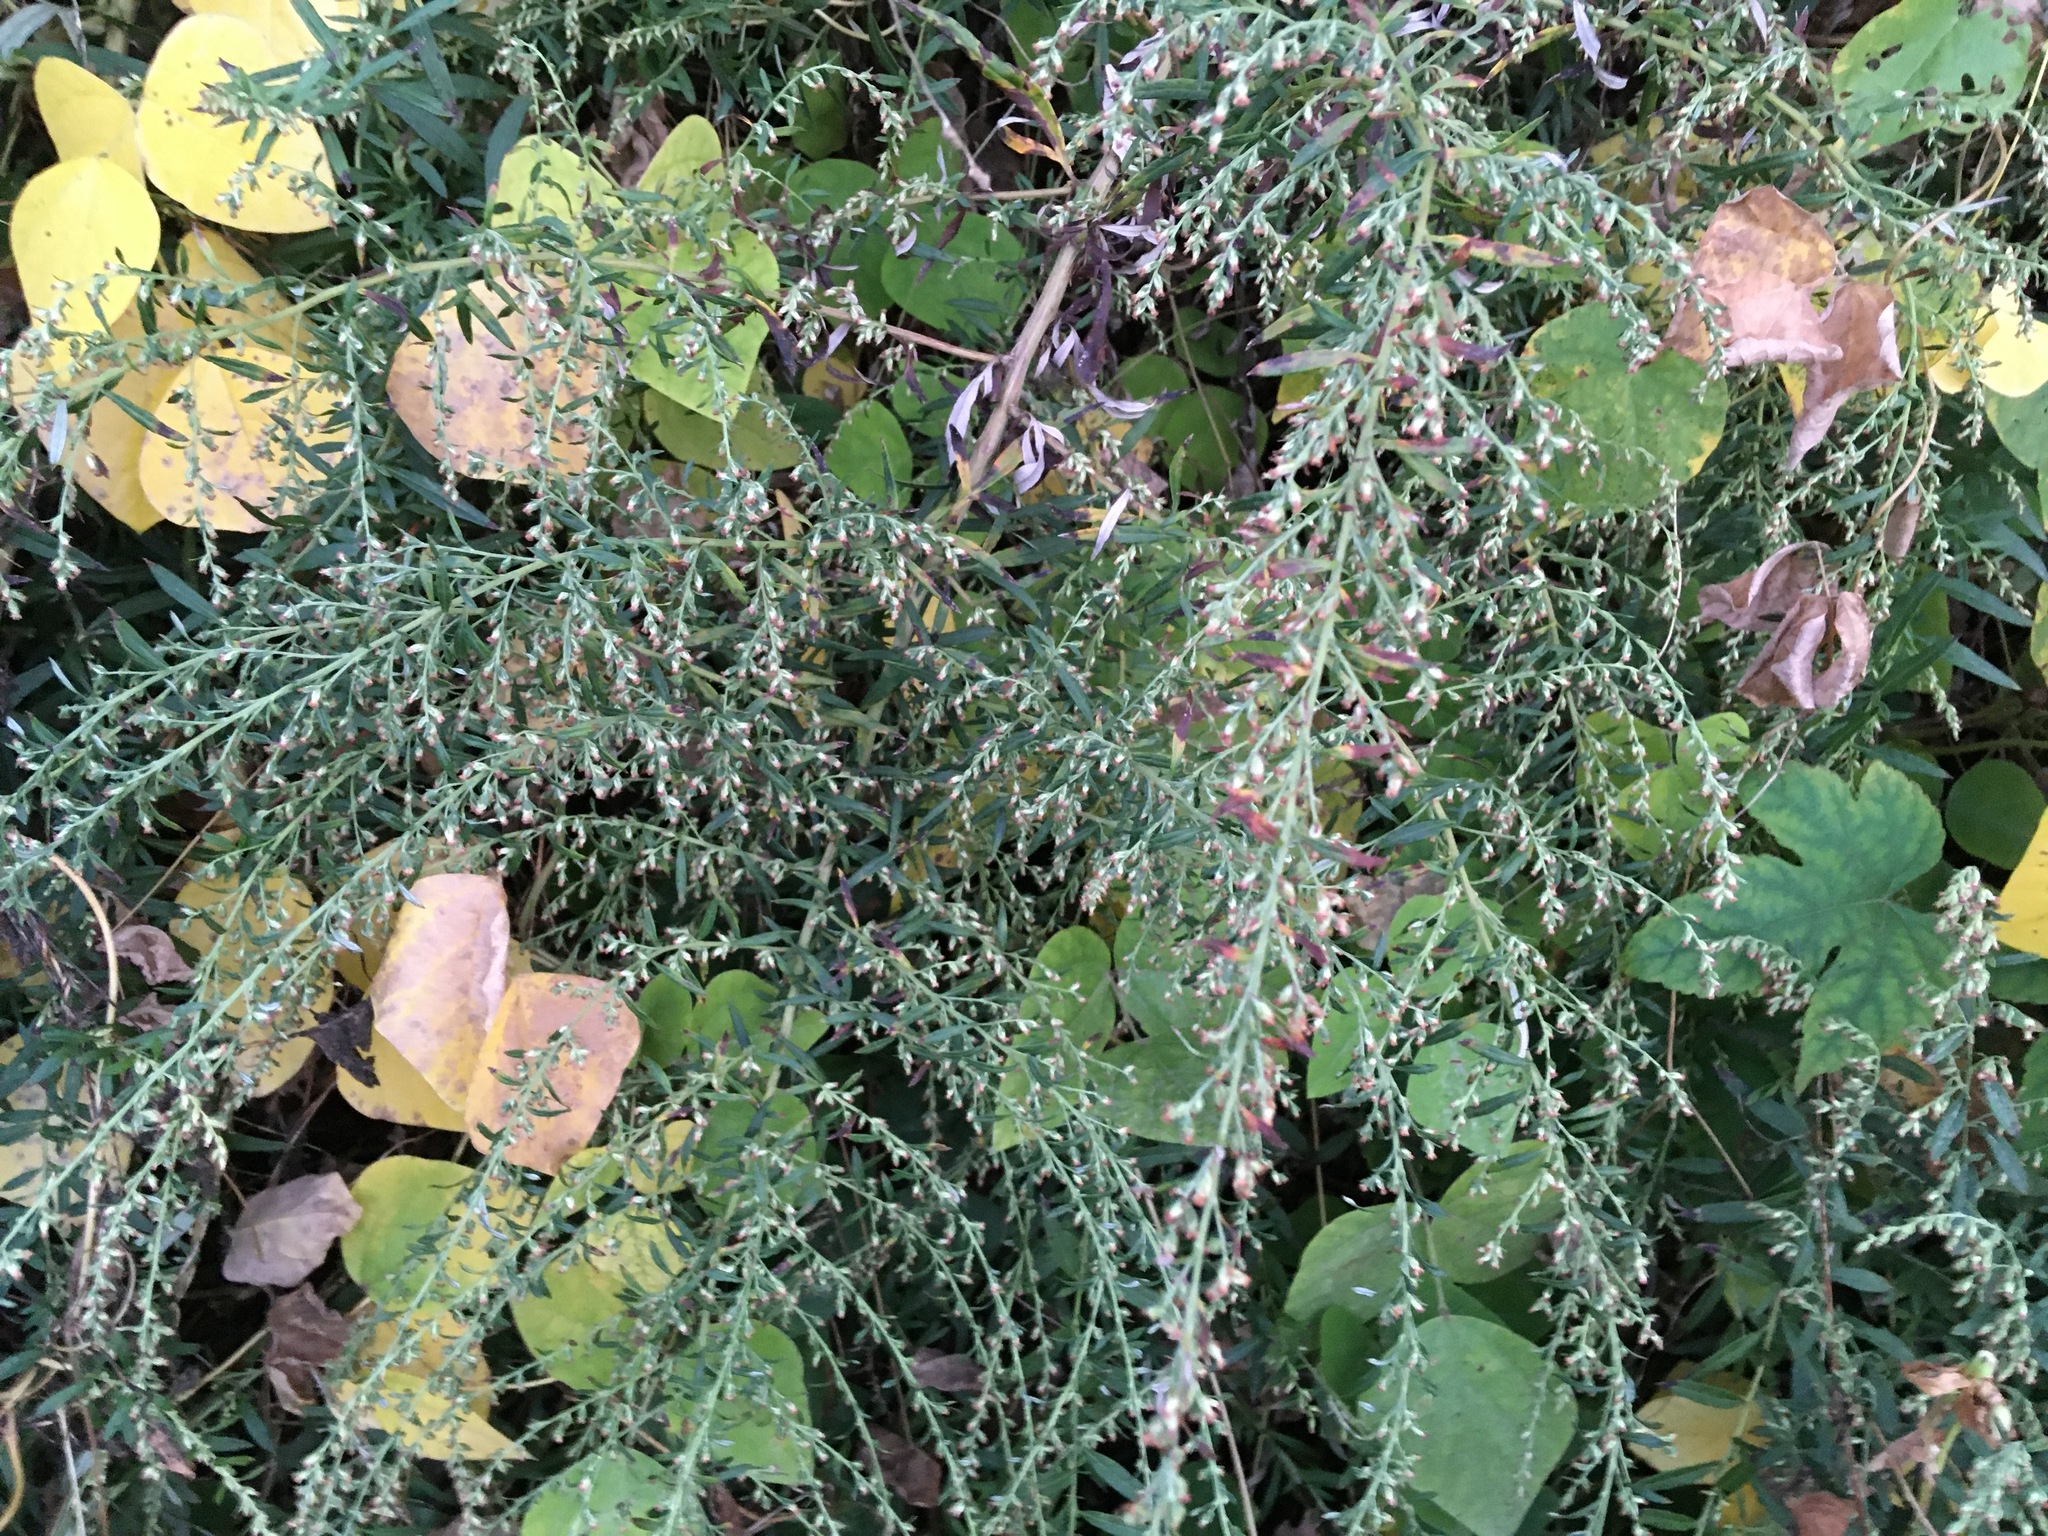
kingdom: Plantae
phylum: Tracheophyta
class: Magnoliopsida
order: Asterales
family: Asteraceae
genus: Artemisia
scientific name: Artemisia vulgaris
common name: Mugwort
